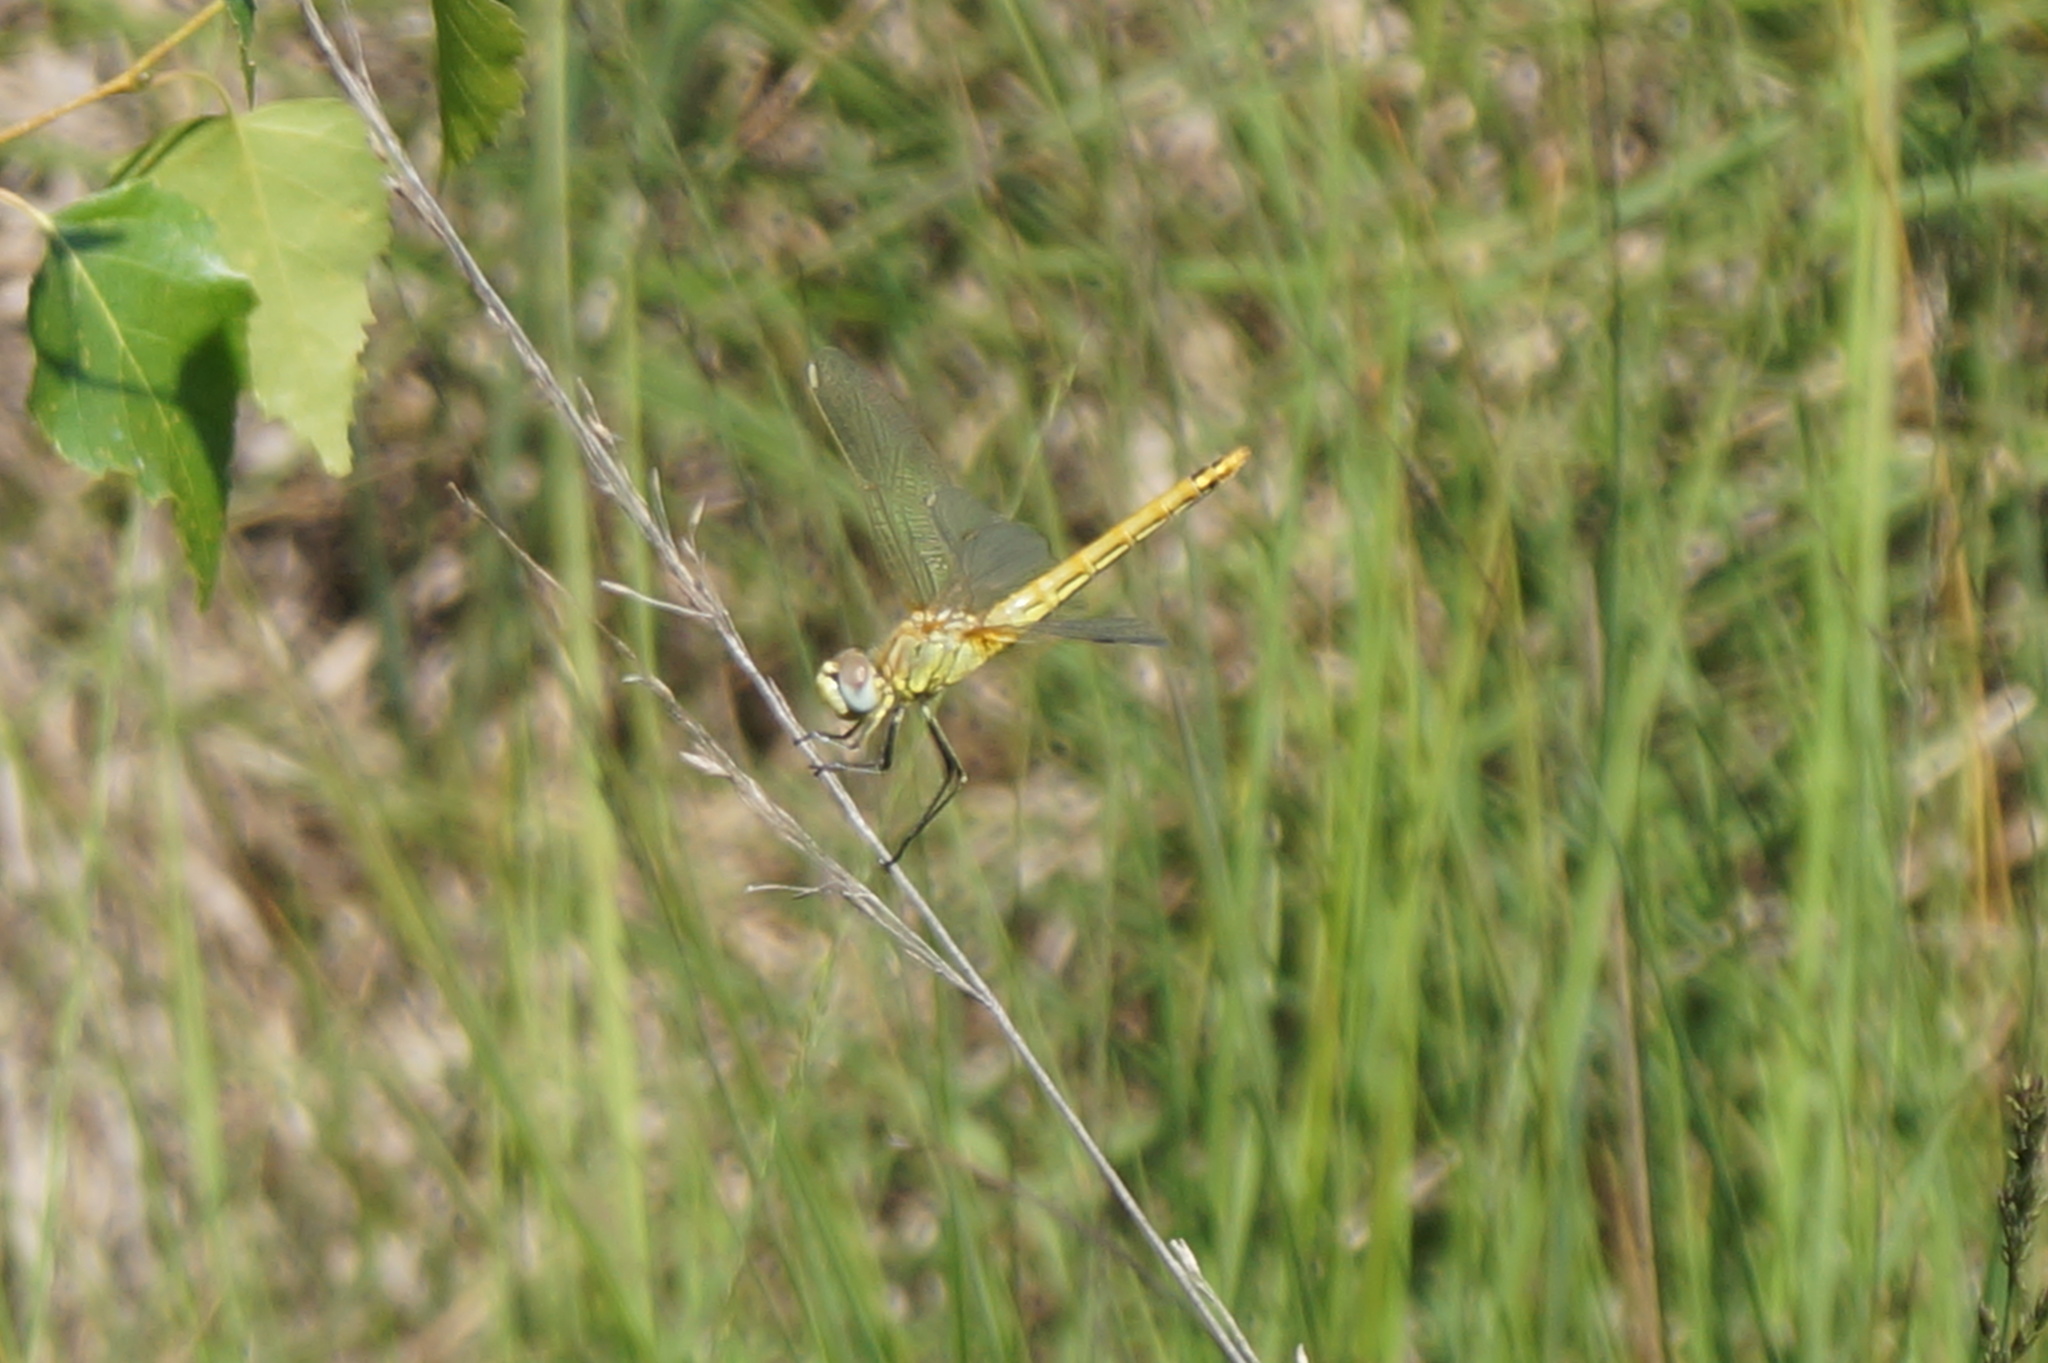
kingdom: Animalia
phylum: Arthropoda
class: Insecta
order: Odonata
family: Libellulidae
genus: Sympetrum
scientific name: Sympetrum fonscolombii
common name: Red-veined darter
